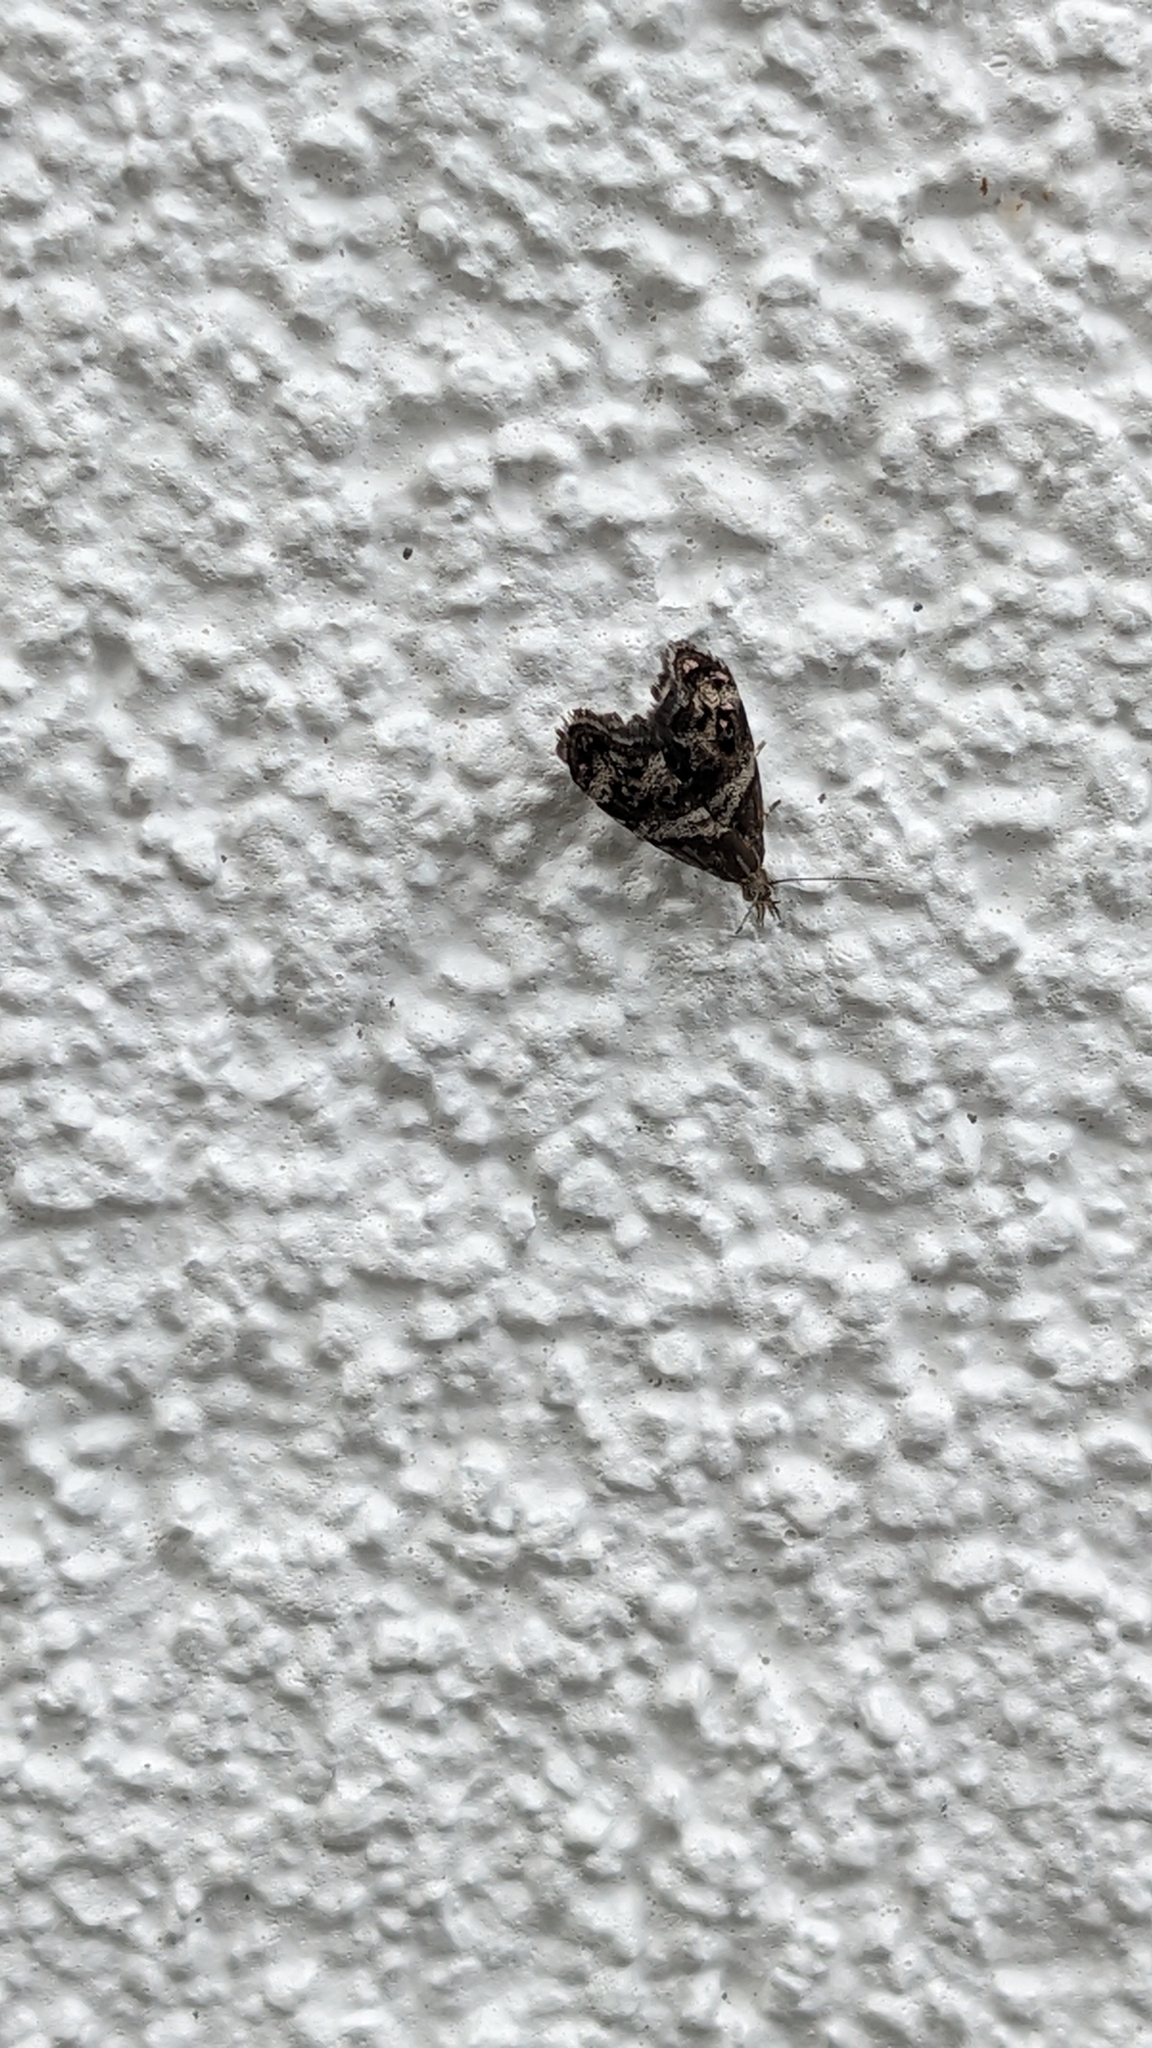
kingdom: Animalia
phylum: Arthropoda
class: Insecta
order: Lepidoptera
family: Choreutidae
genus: Tebenna
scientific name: Tebenna micalis
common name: Vagrant twitcher
